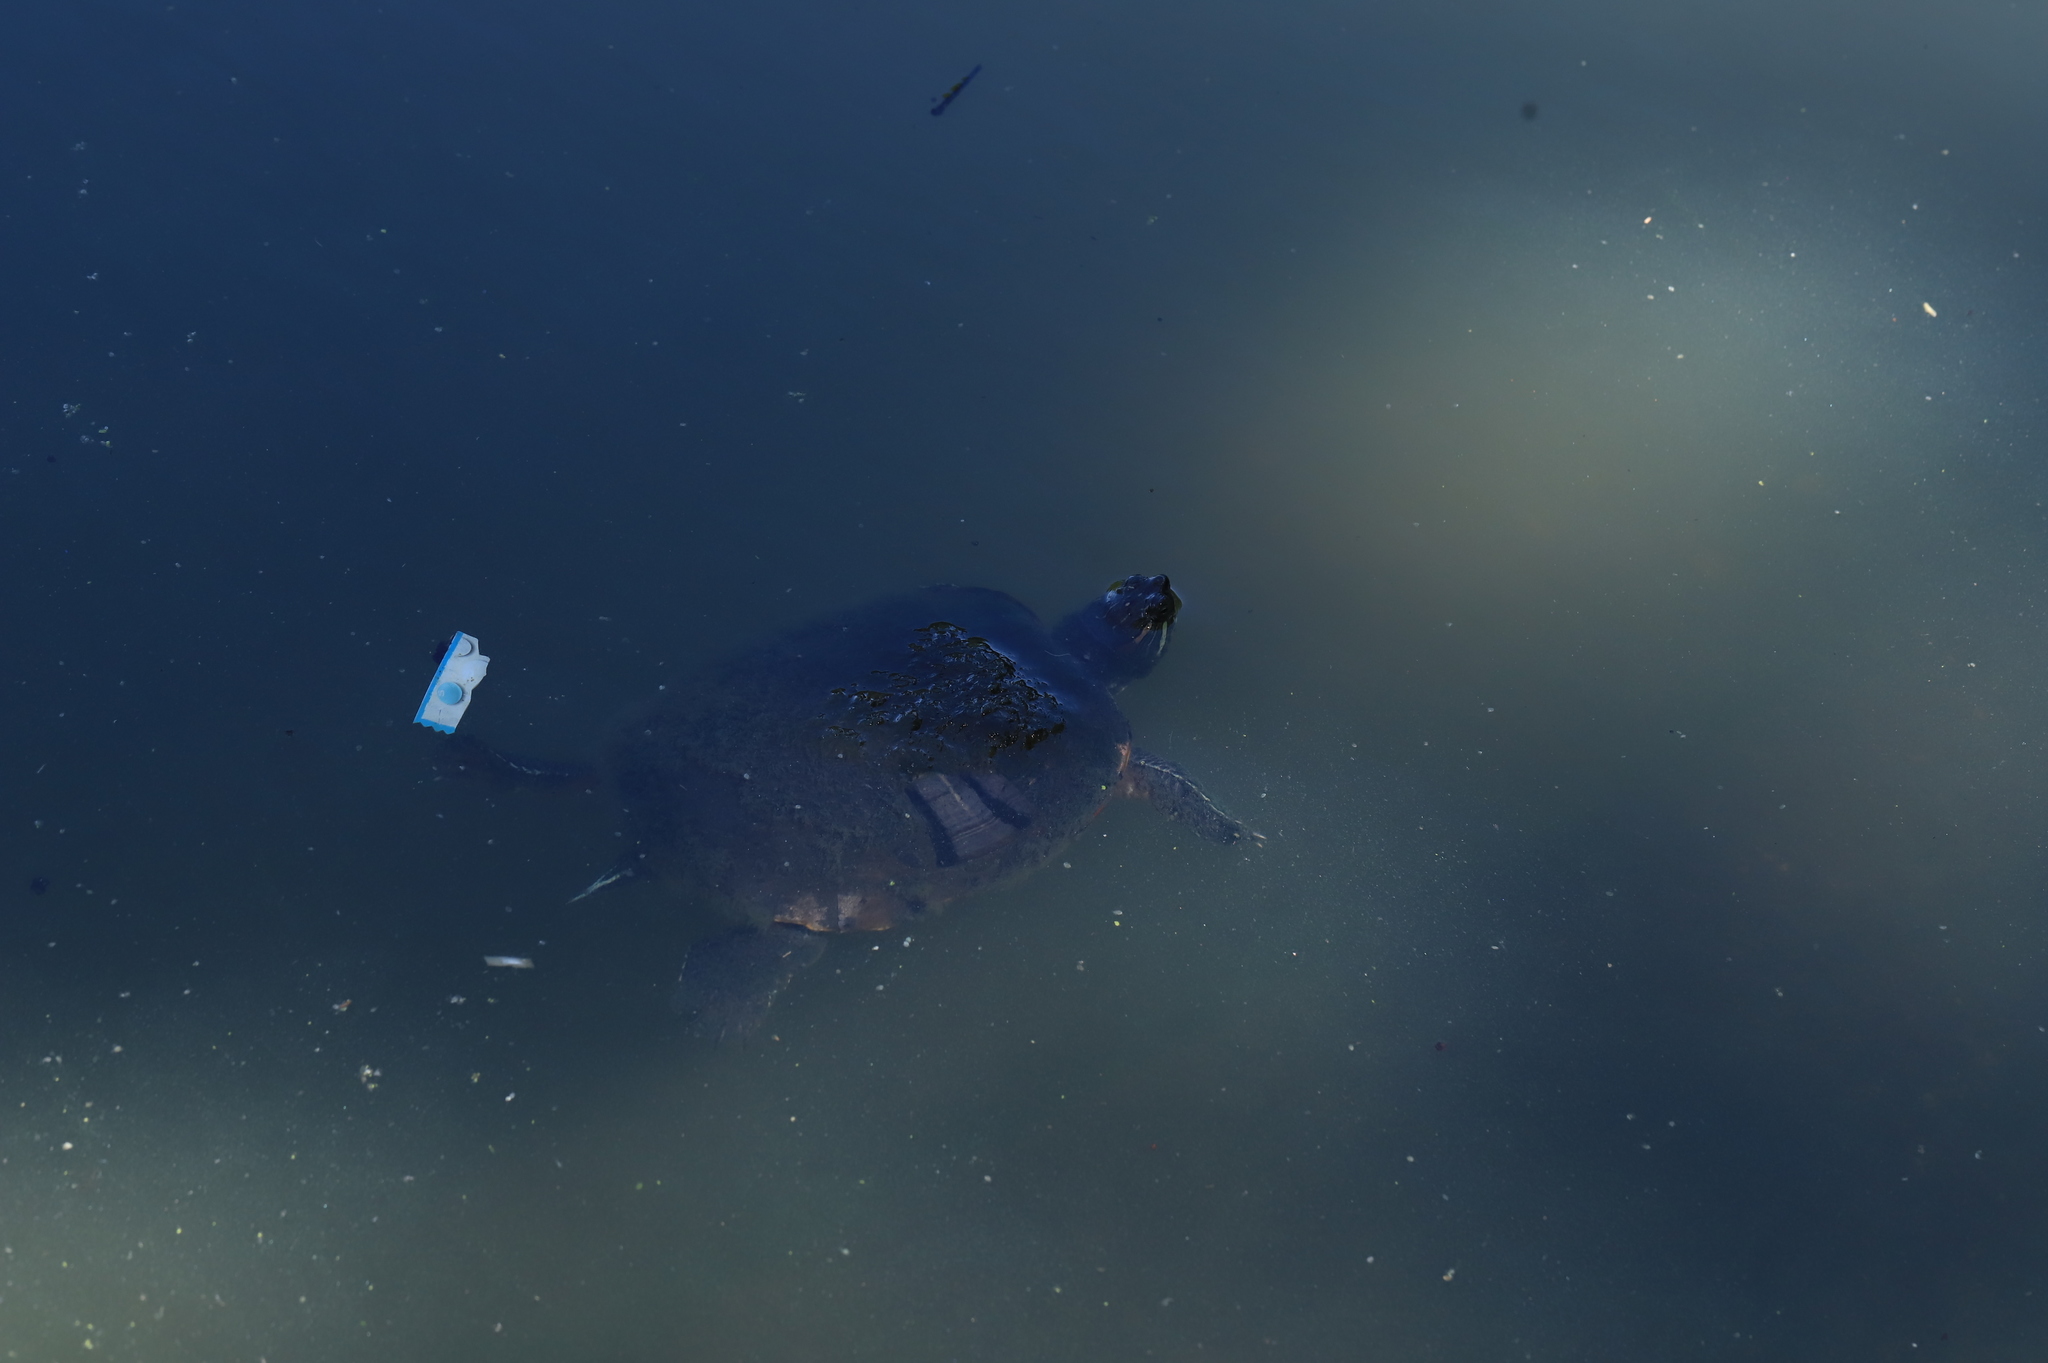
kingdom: Animalia
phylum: Chordata
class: Testudines
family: Emydidae
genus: Trachemys
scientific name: Trachemys scripta
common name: Slider
